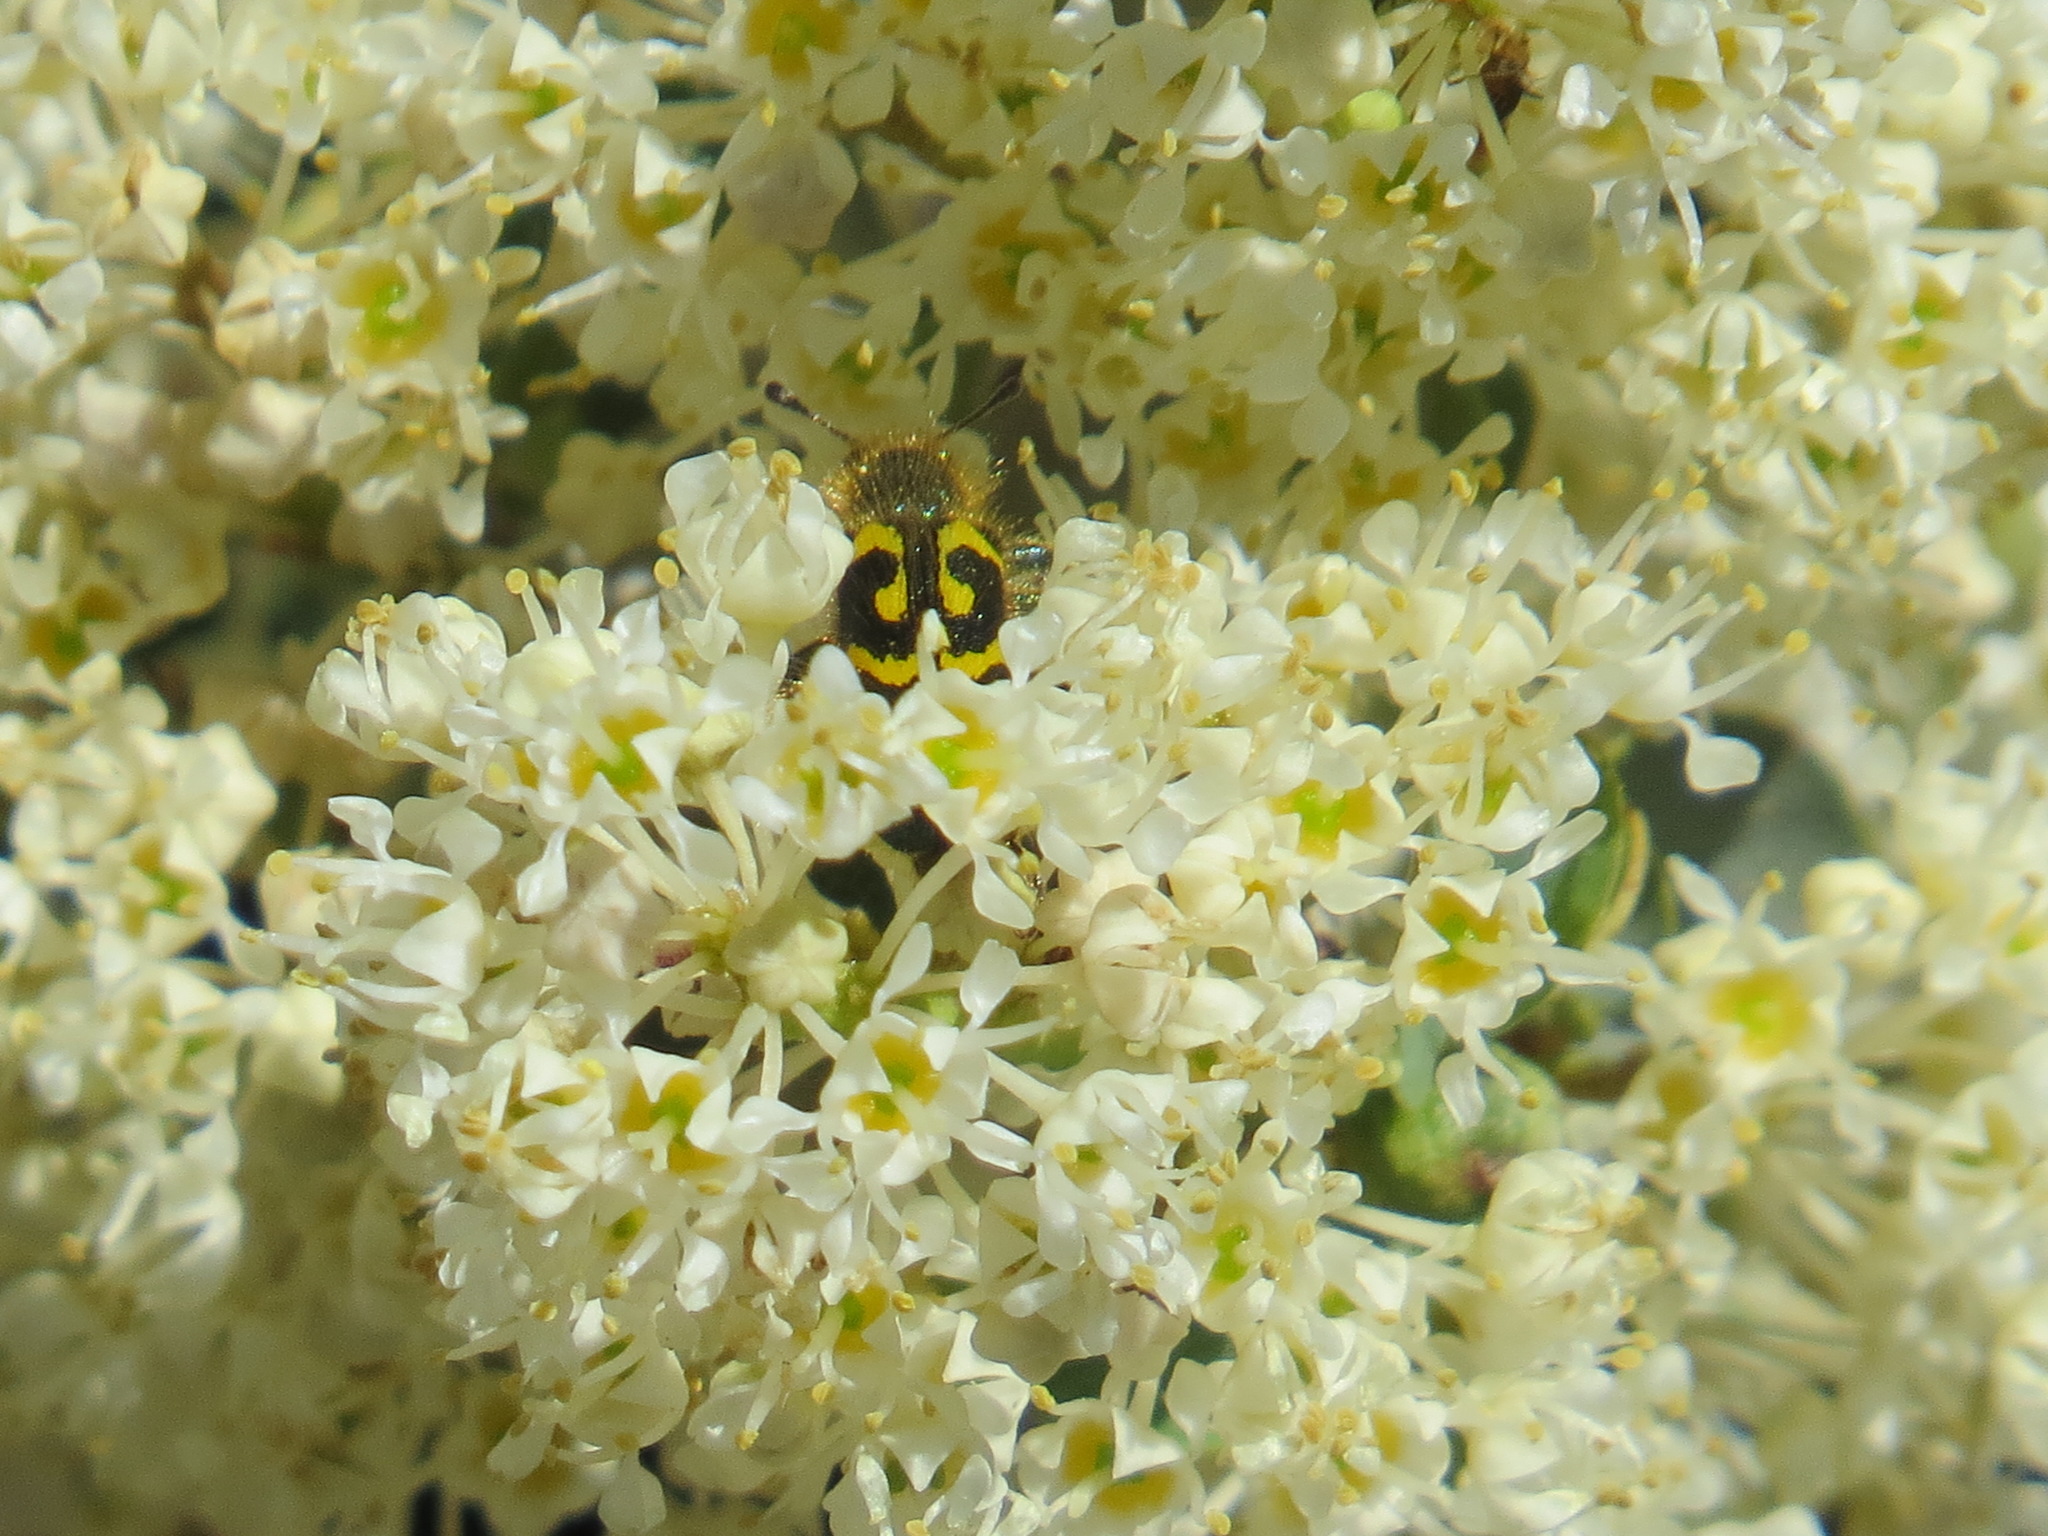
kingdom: Animalia
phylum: Arthropoda
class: Insecta
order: Coleoptera
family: Cleridae
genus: Trichodes
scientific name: Trichodes ornatus
